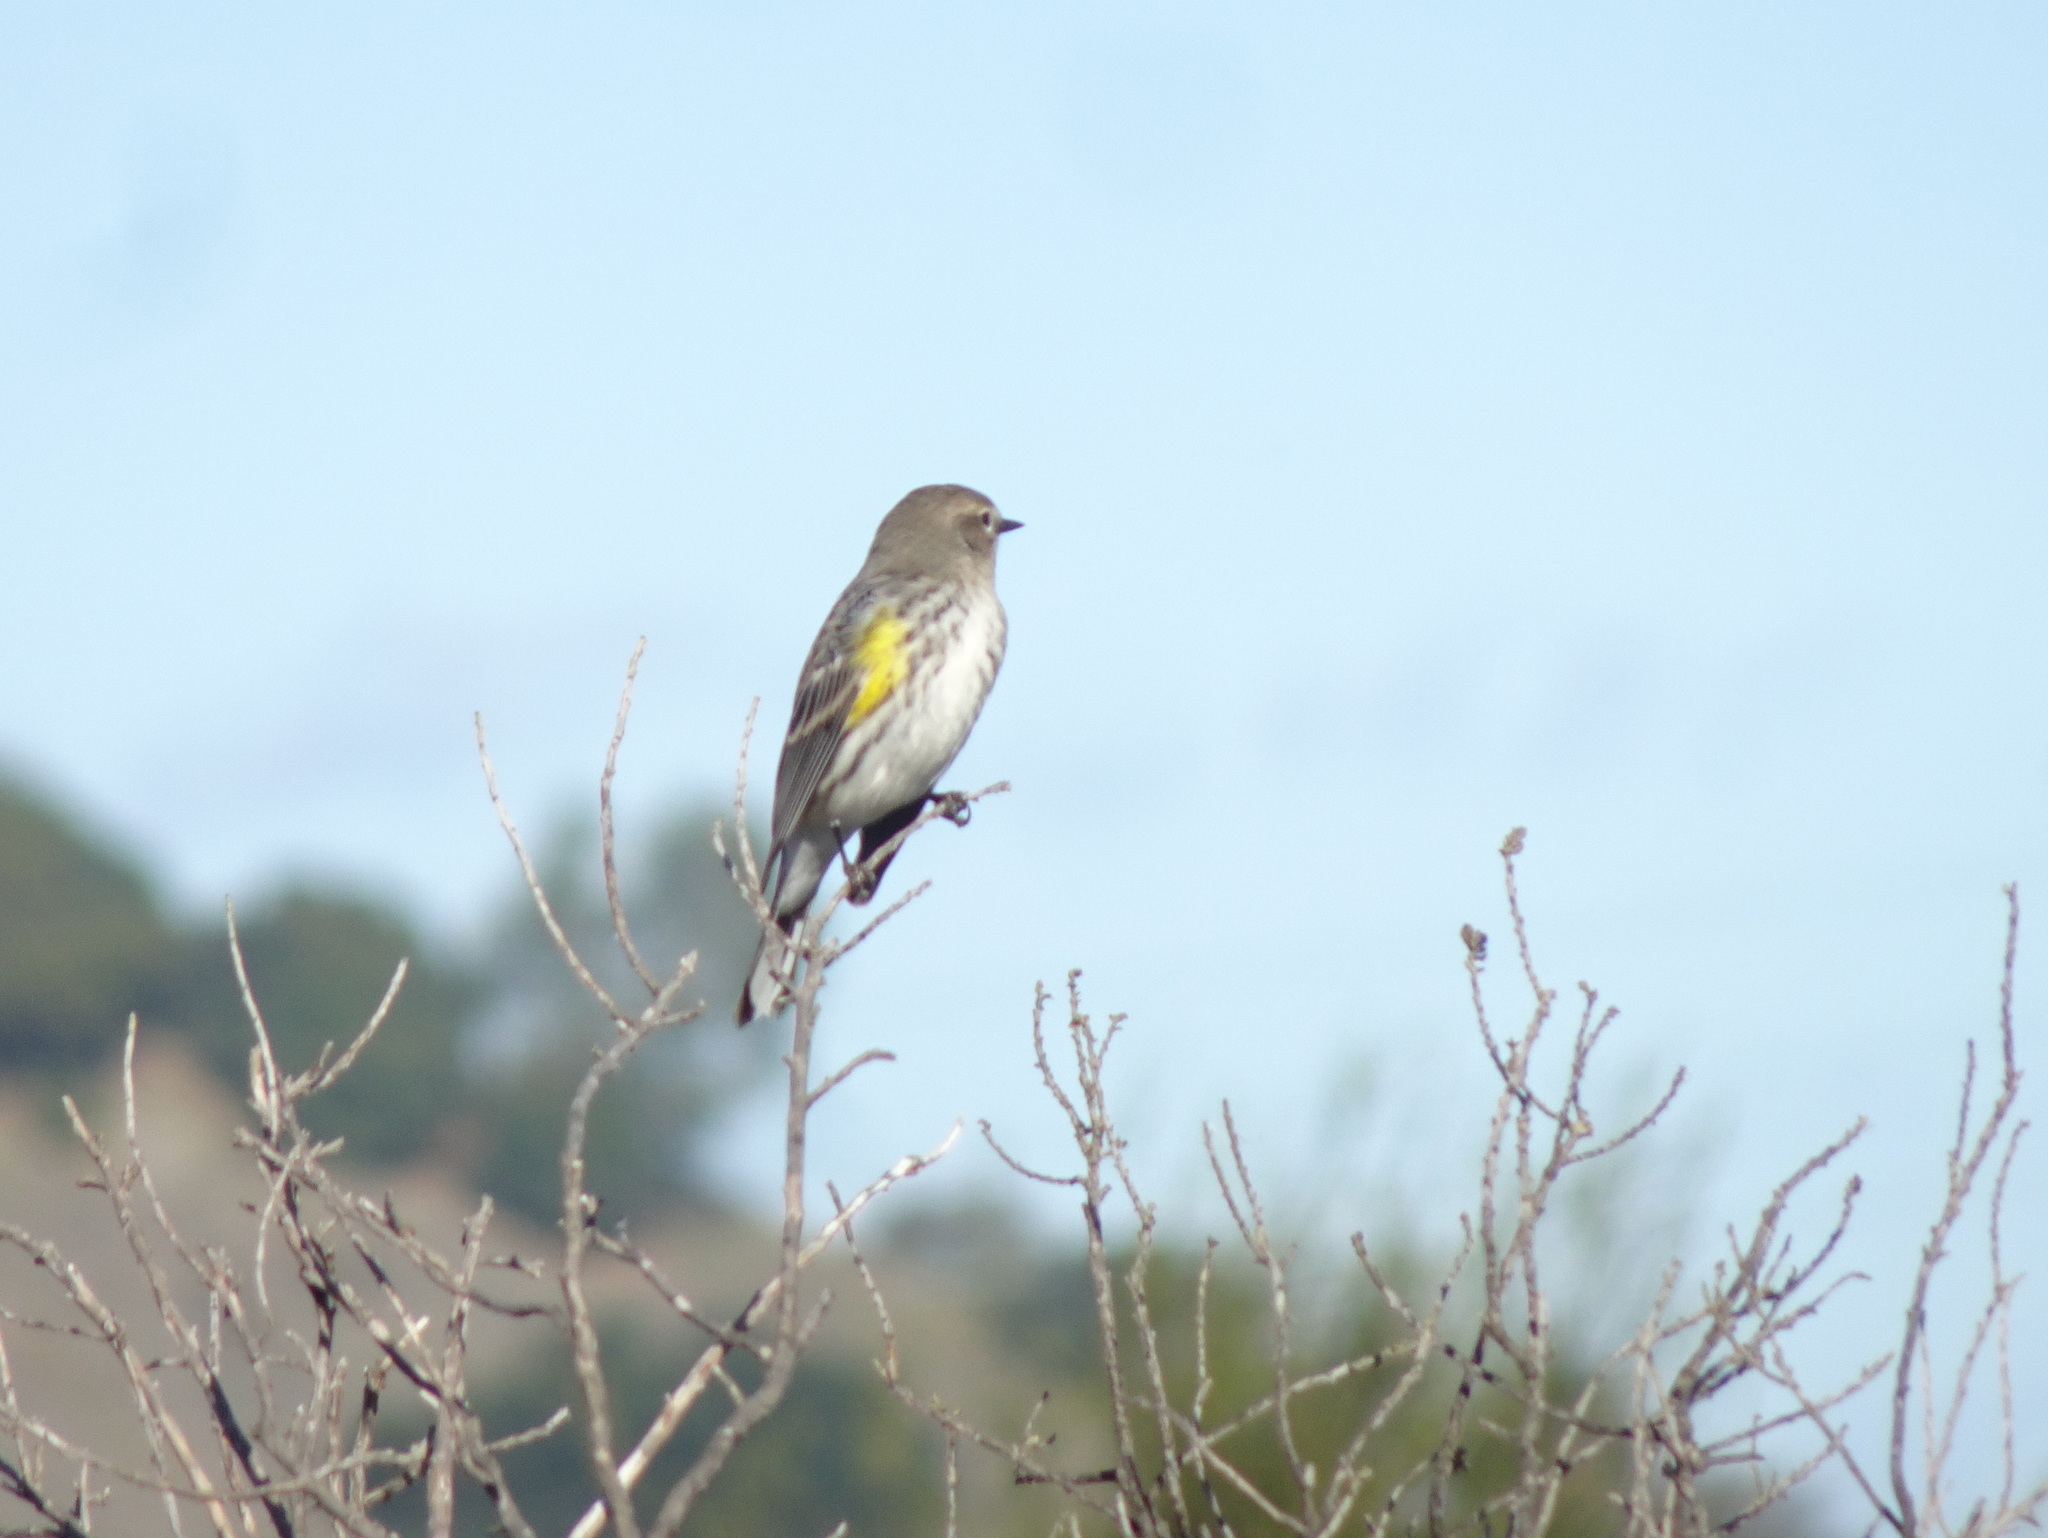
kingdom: Animalia
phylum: Chordata
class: Aves
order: Passeriformes
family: Parulidae
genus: Setophaga
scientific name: Setophaga coronata
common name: Myrtle warbler
